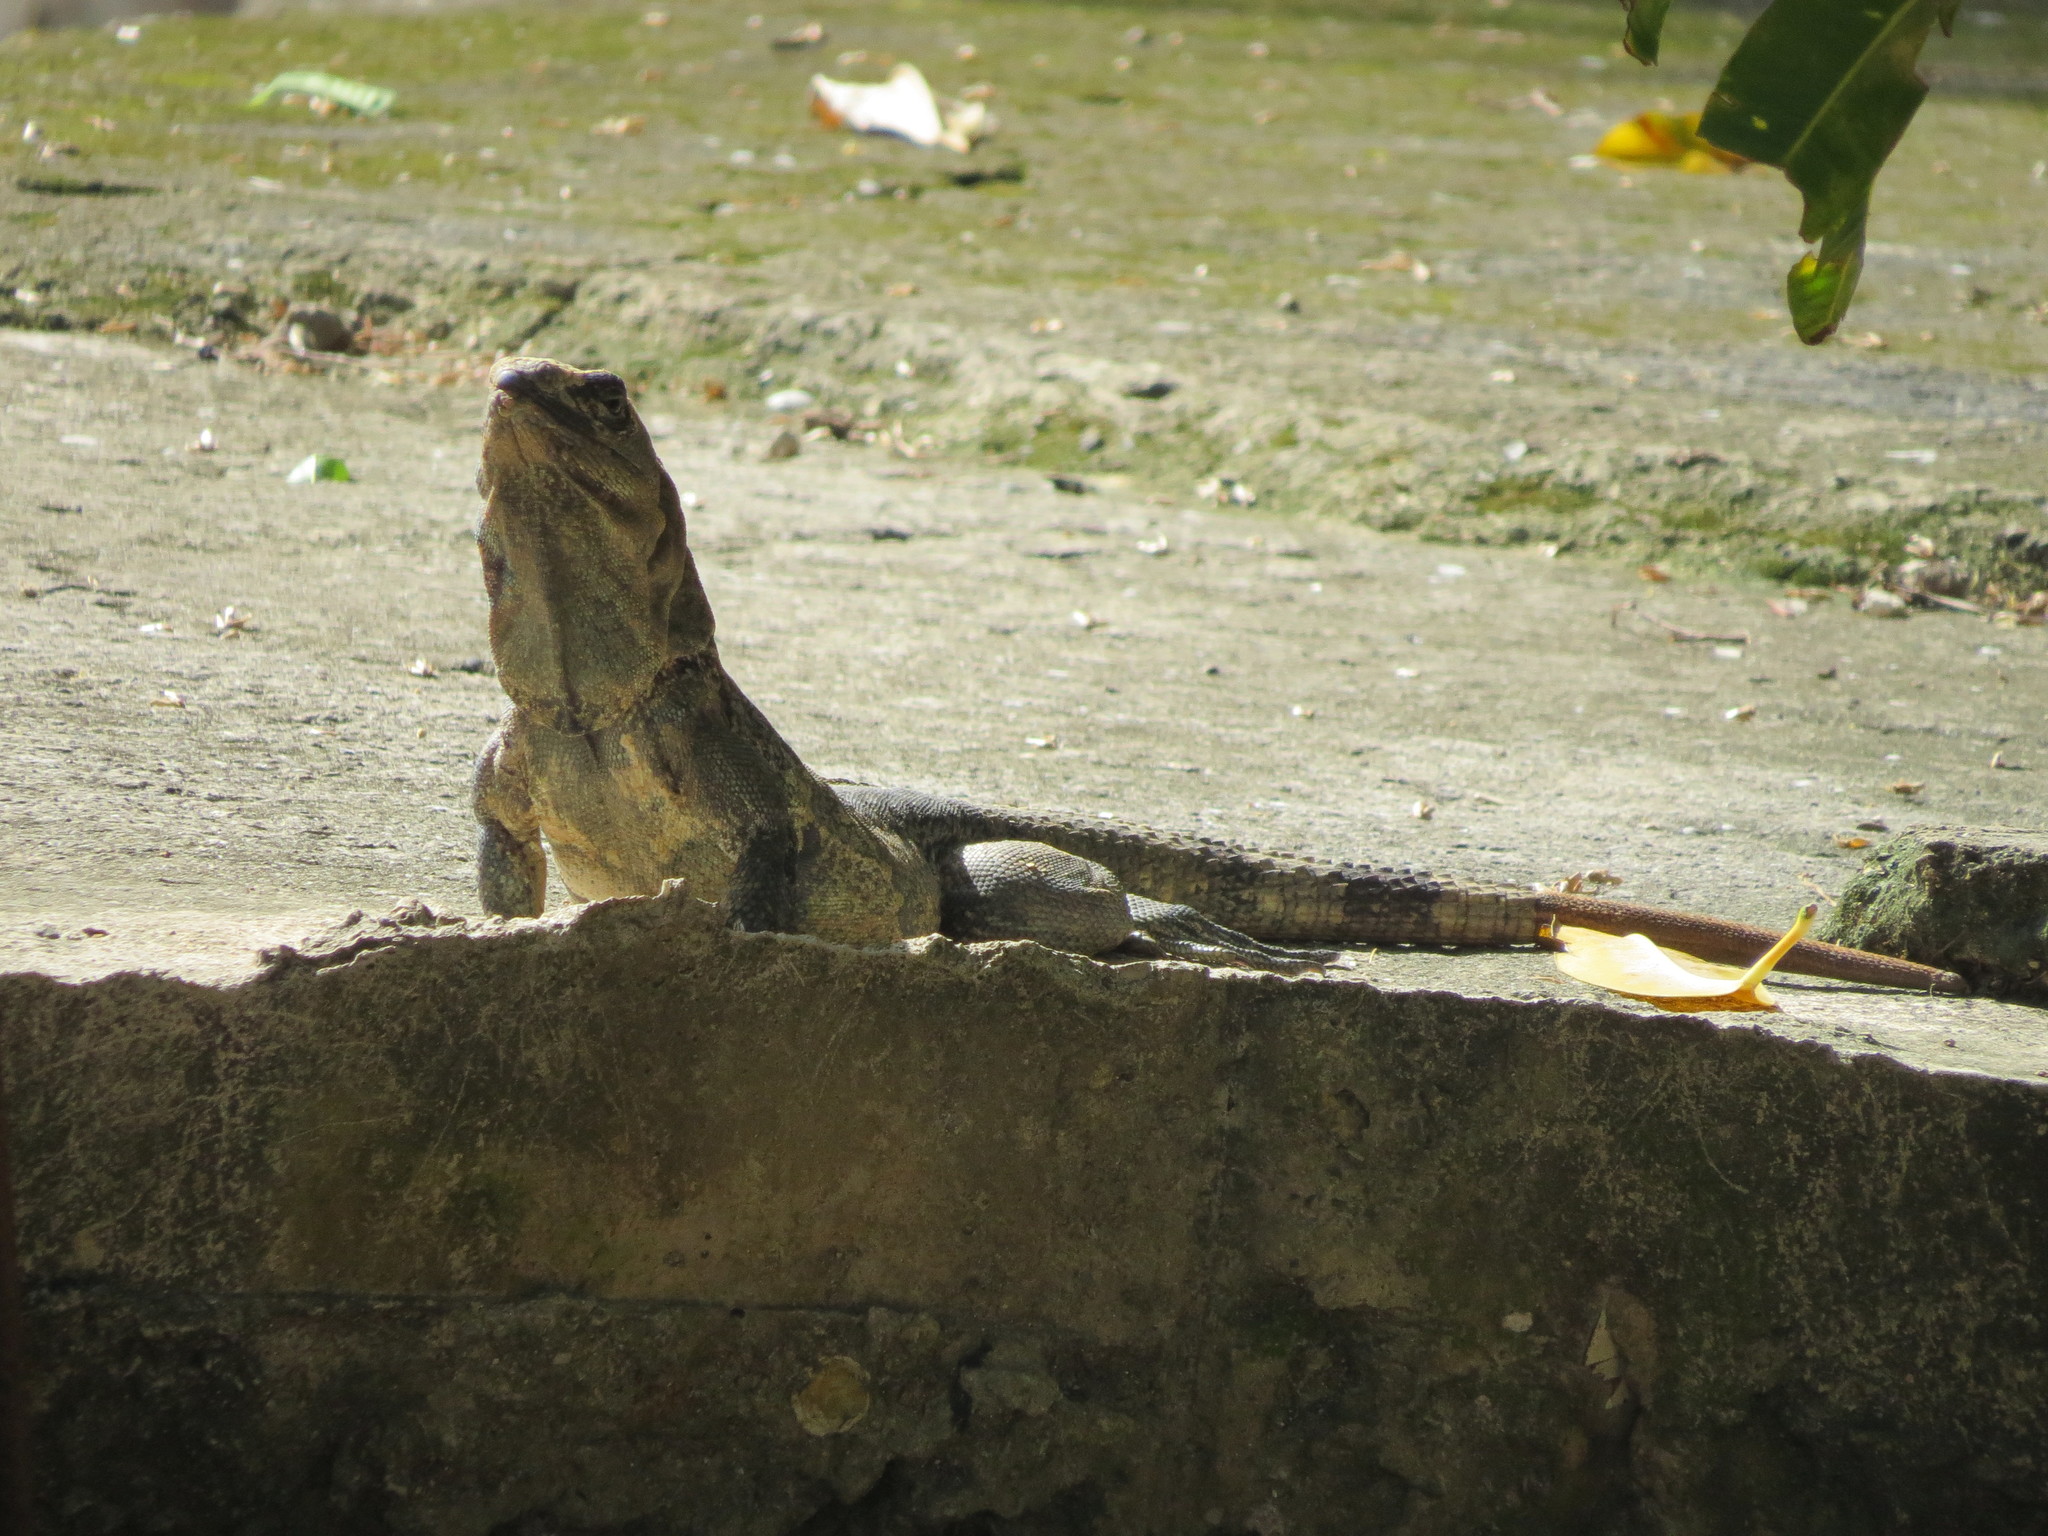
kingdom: Animalia
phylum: Chordata
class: Squamata
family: Iguanidae
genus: Ctenosaura
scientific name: Ctenosaura similis
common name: Black spiny-tailed iguana
